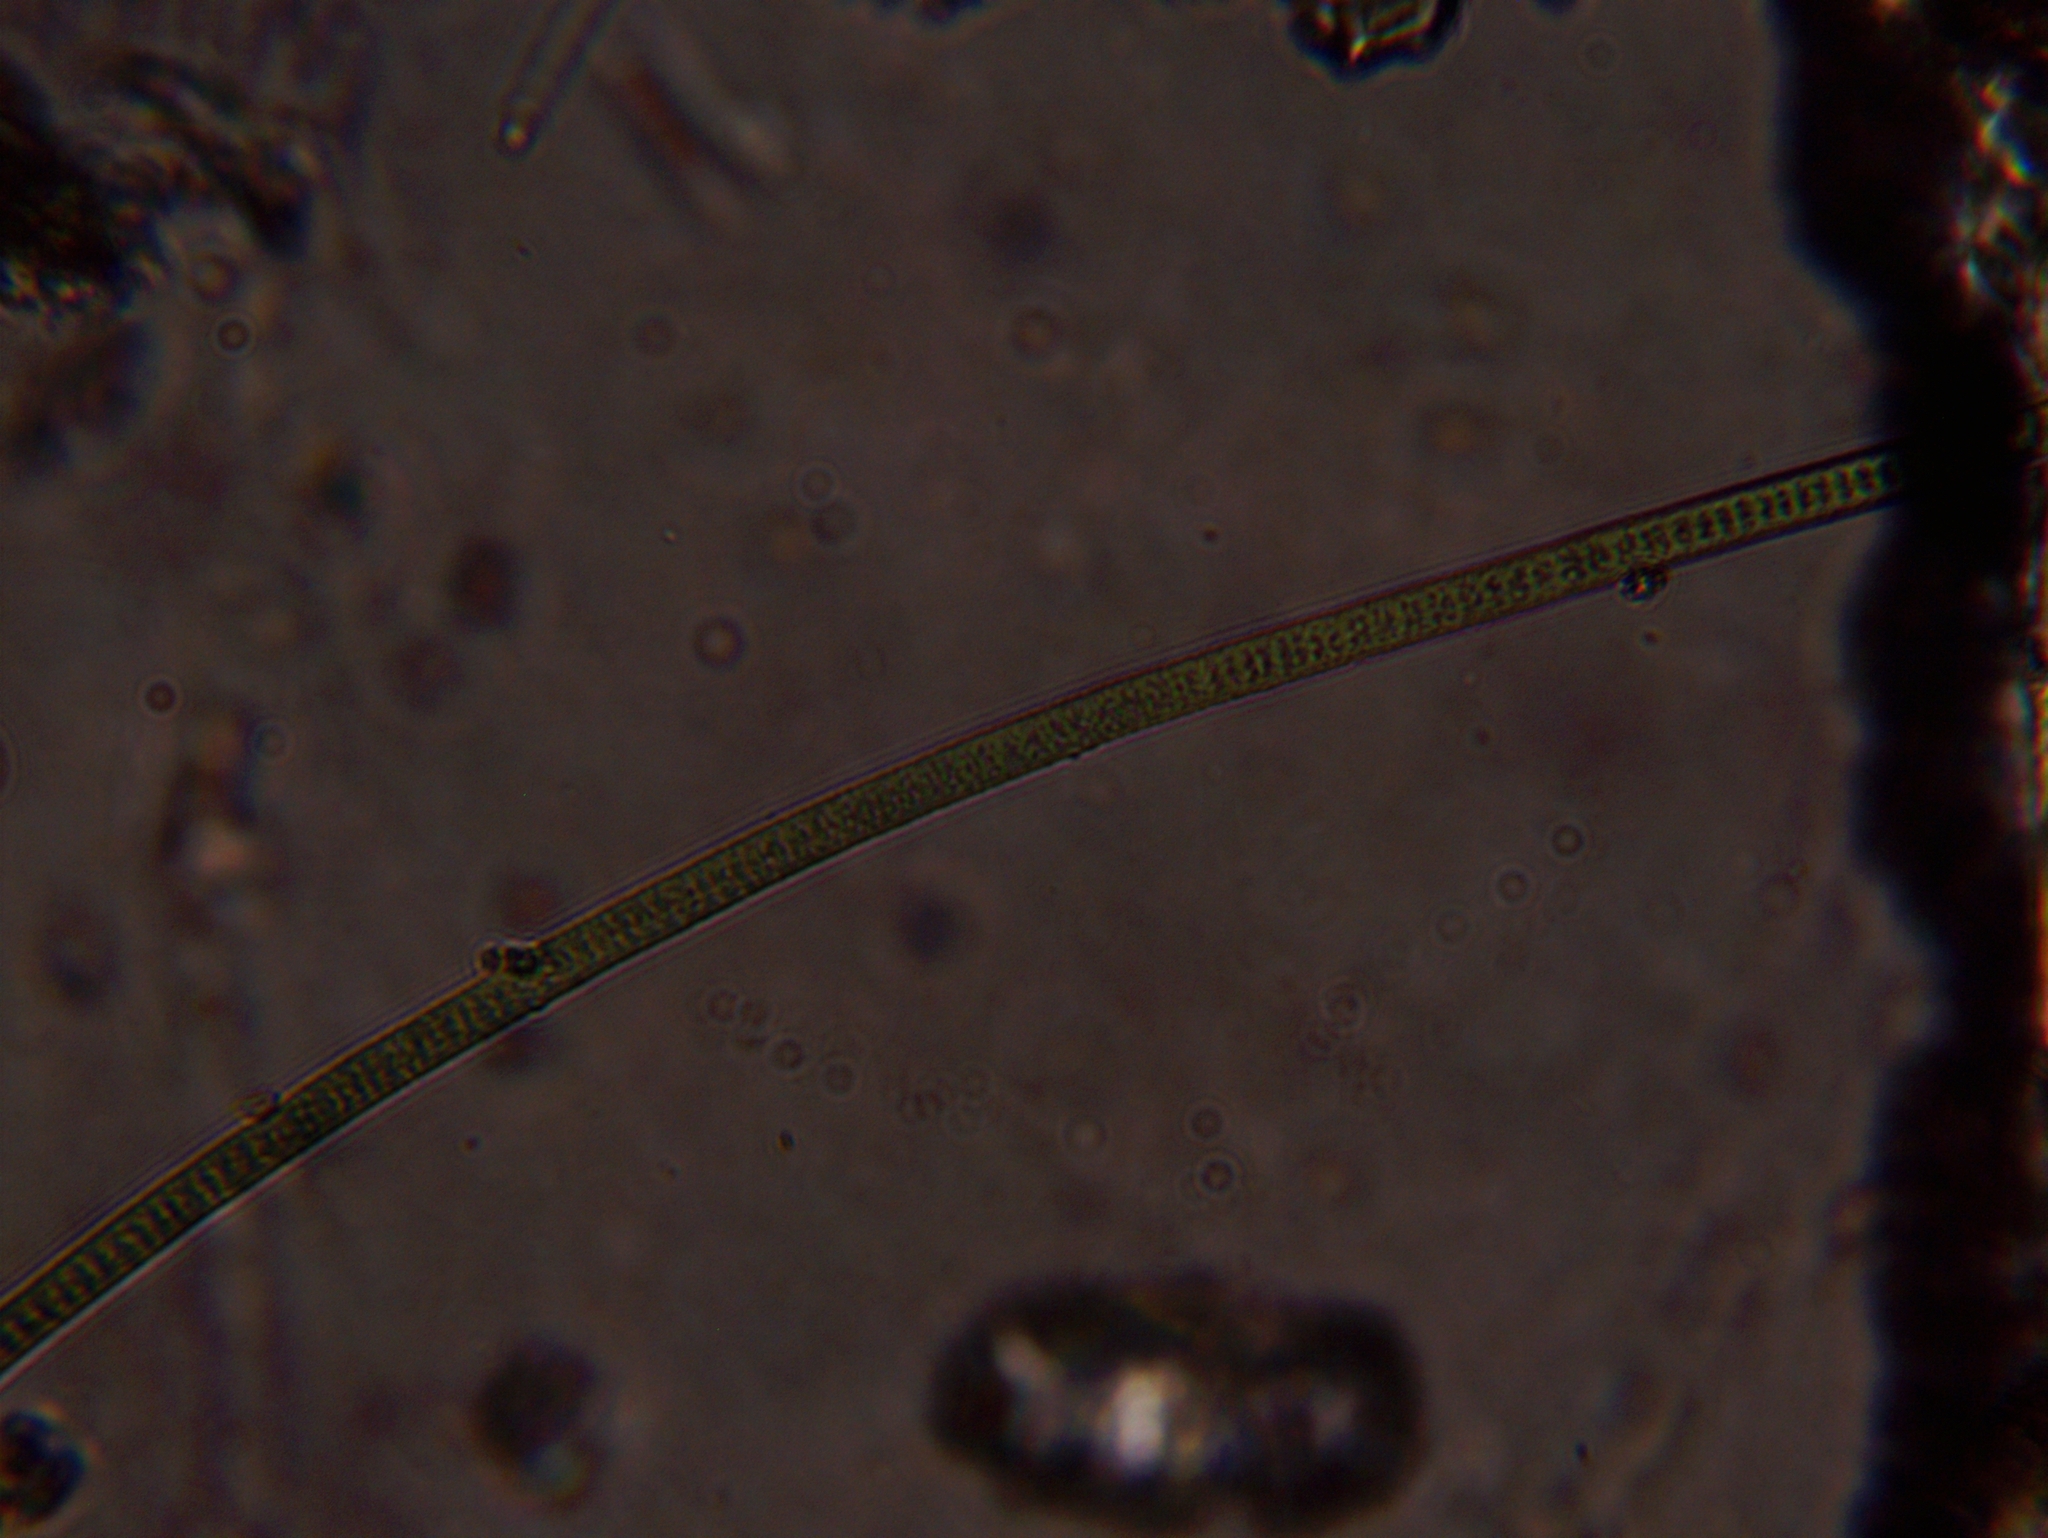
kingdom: Bacteria
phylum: Cyanobacteria
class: Cyanobacteriia
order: Cyanobacteriales
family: Oscillatoriaceae
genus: Oscillatoria
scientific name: Oscillatoria
